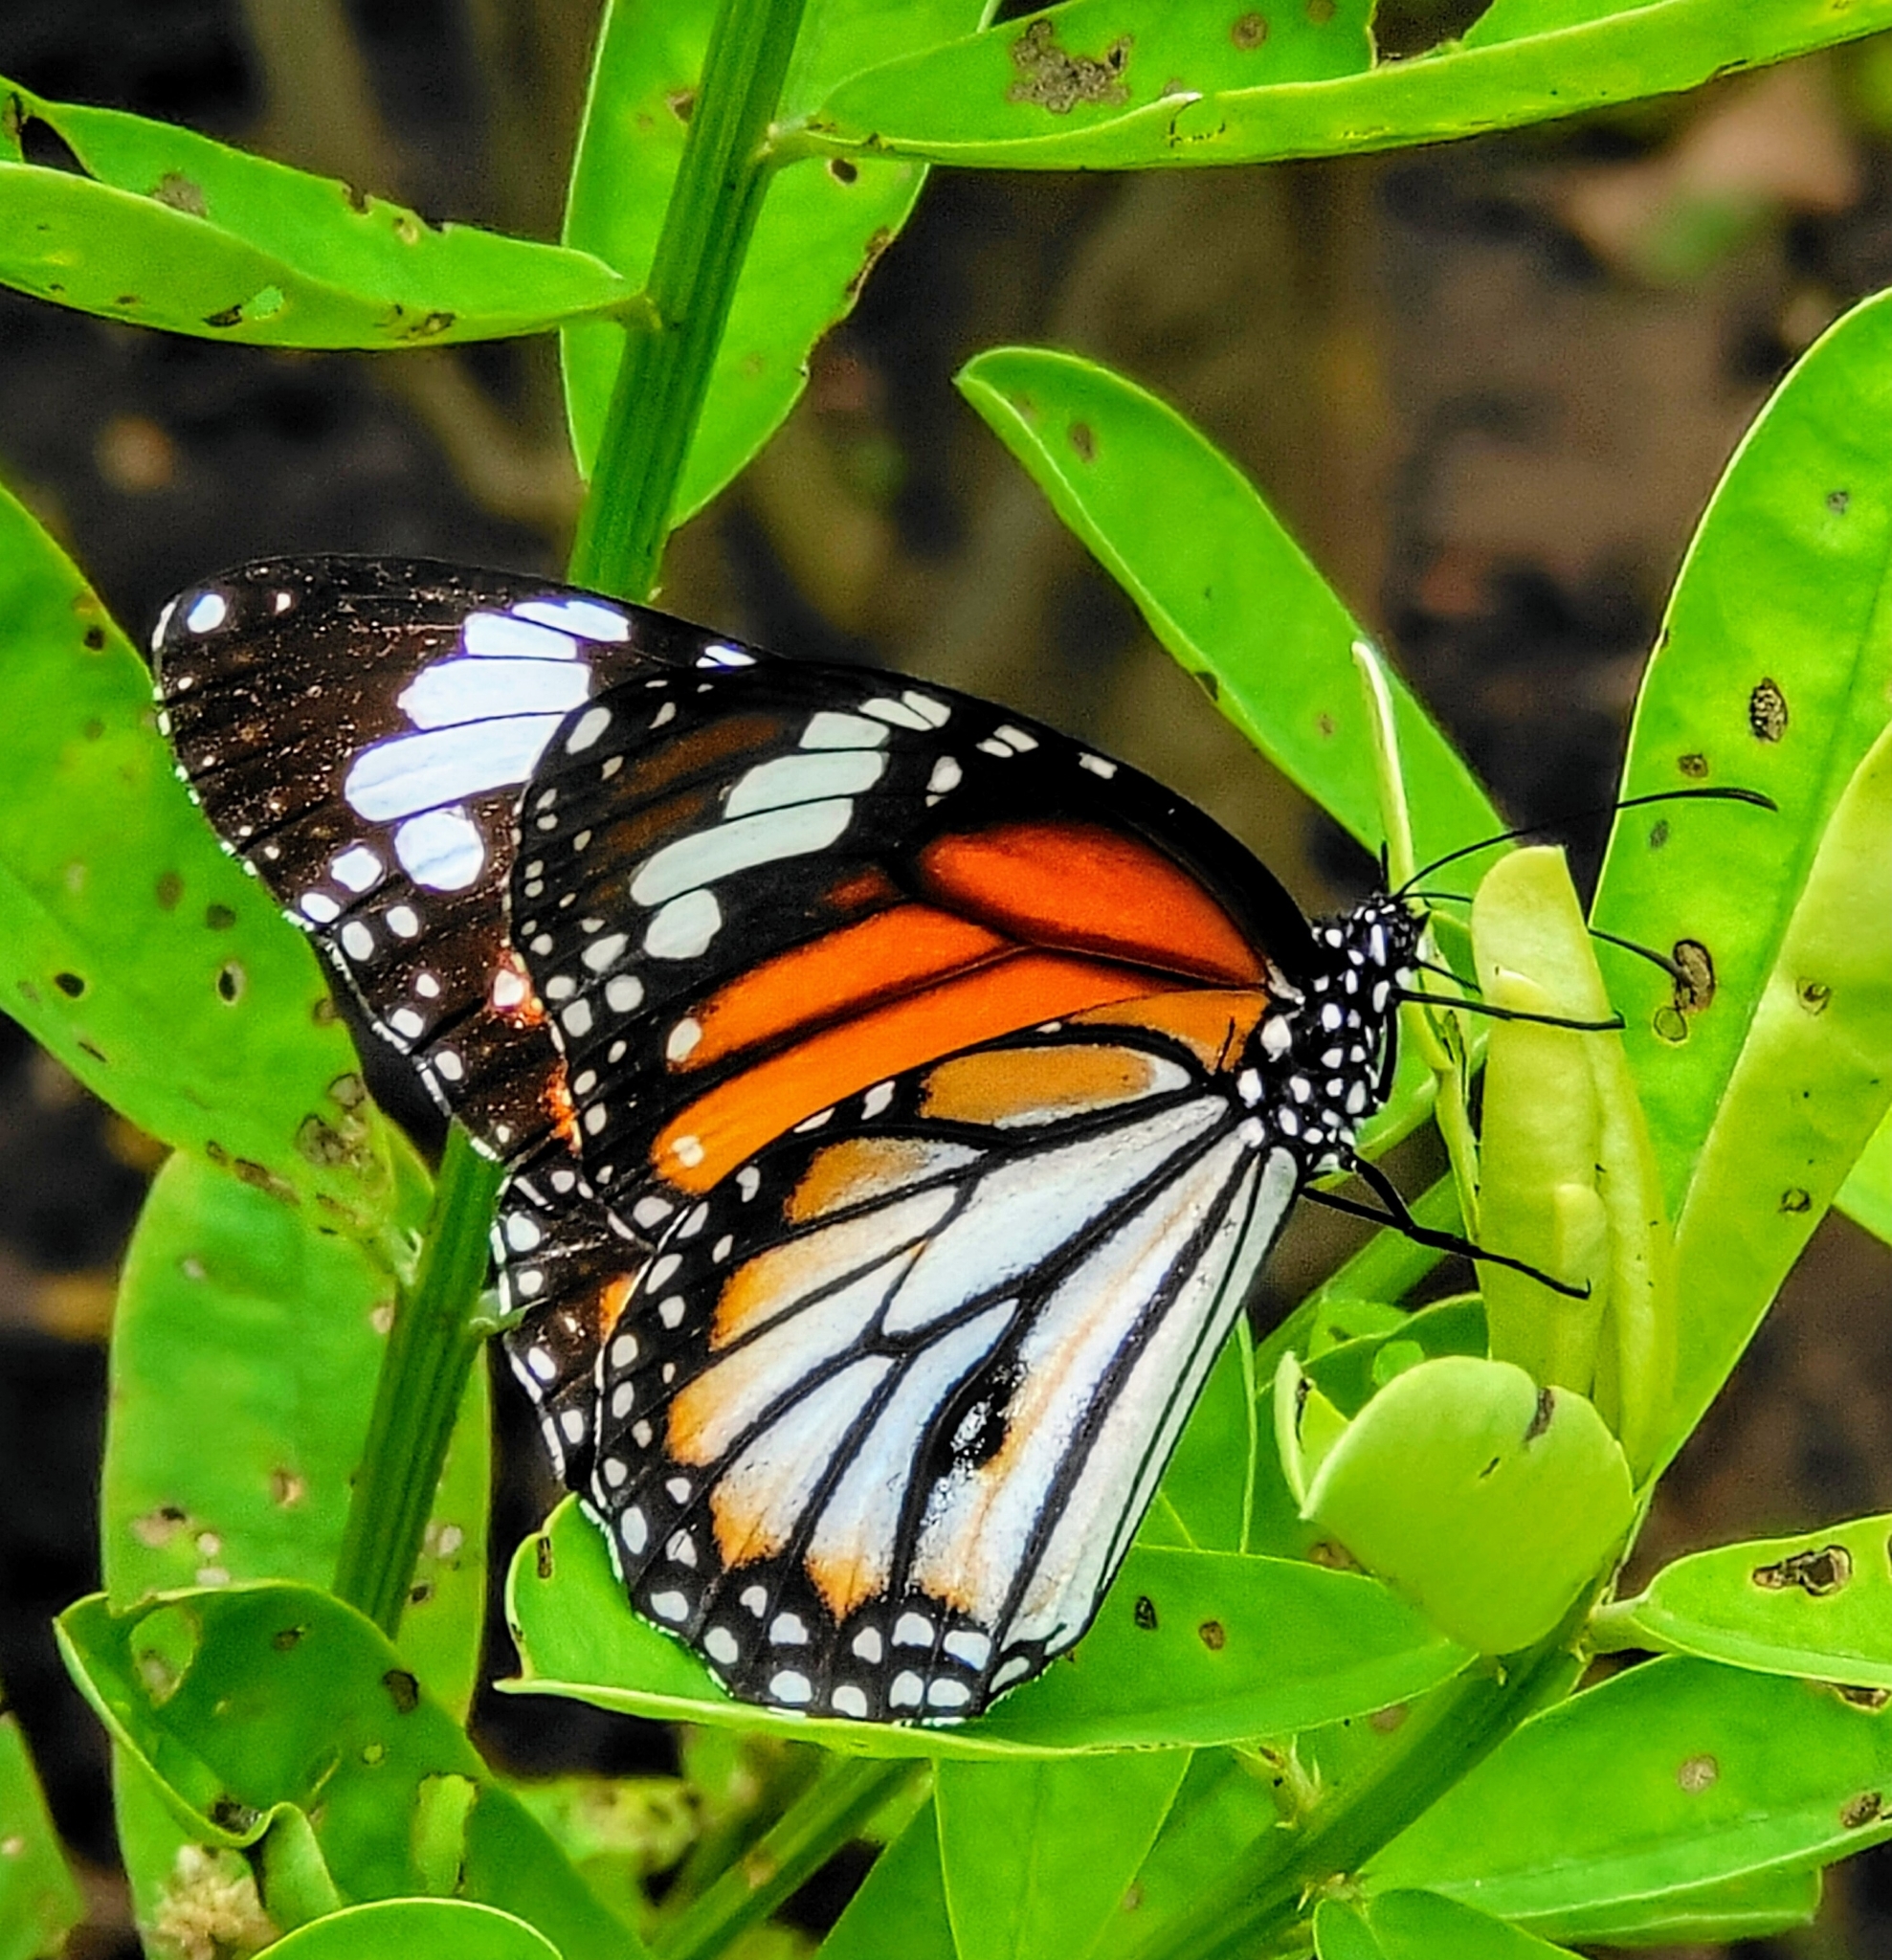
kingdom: Animalia
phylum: Arthropoda
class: Insecta
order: Lepidoptera
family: Nymphalidae
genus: Danaus
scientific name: Danaus genutia
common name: Common tiger butterfly
